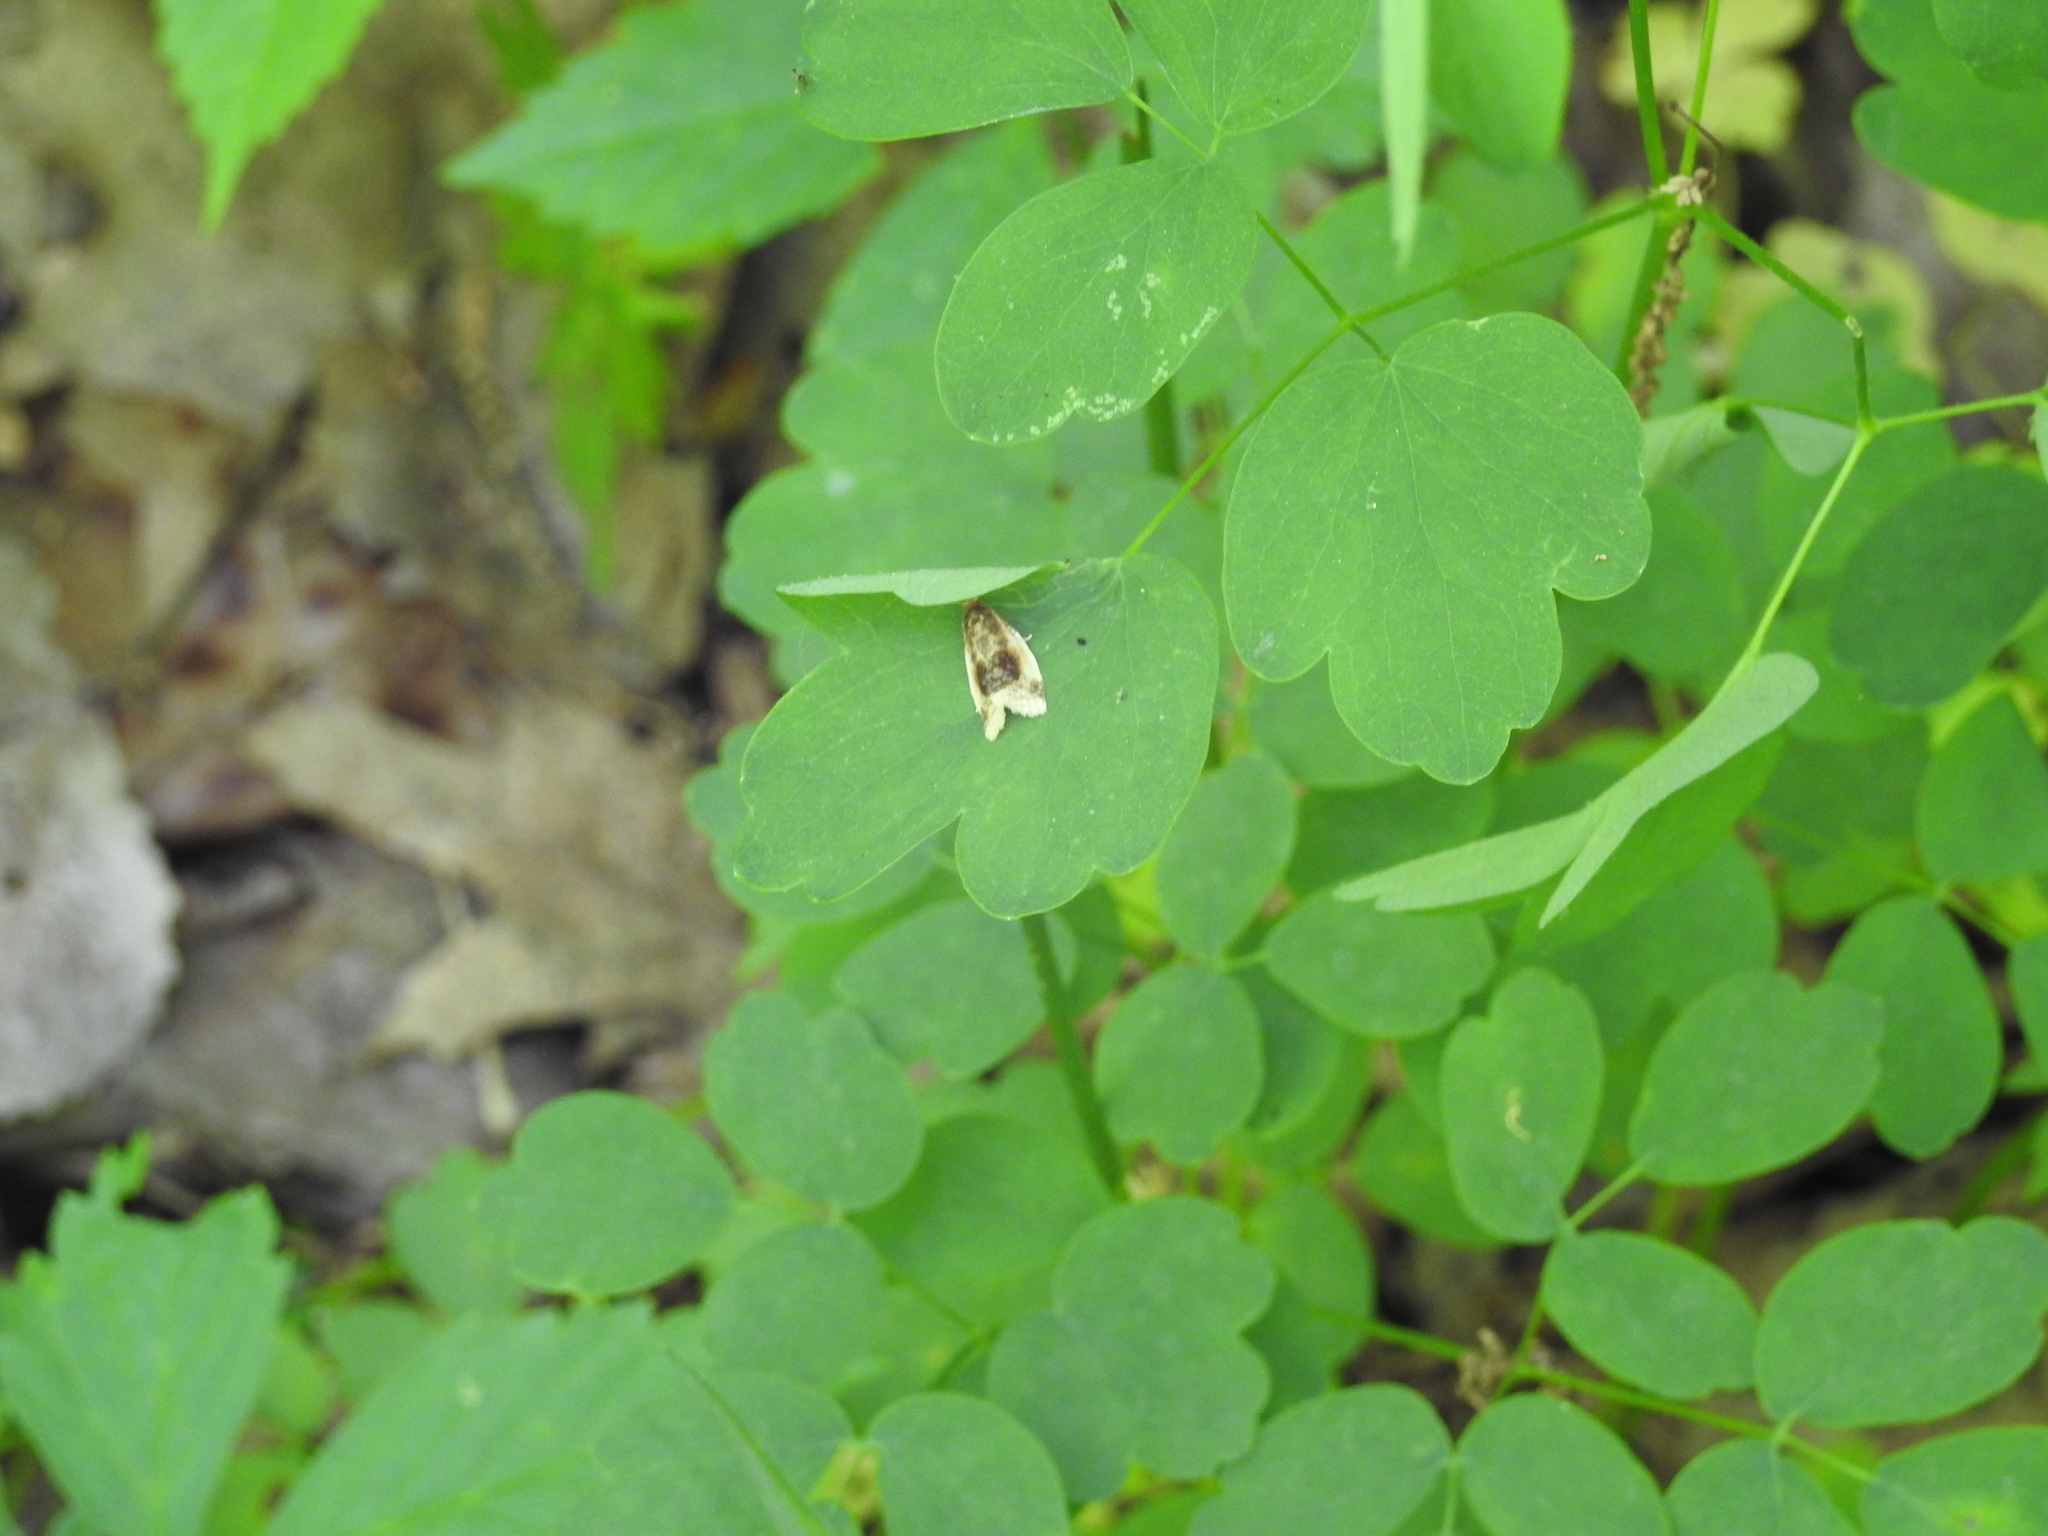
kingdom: Animalia
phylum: Arthropoda
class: Insecta
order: Lepidoptera
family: Tortricidae
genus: Clepsis
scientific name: Clepsis melaleucanus
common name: American apple tortrix
